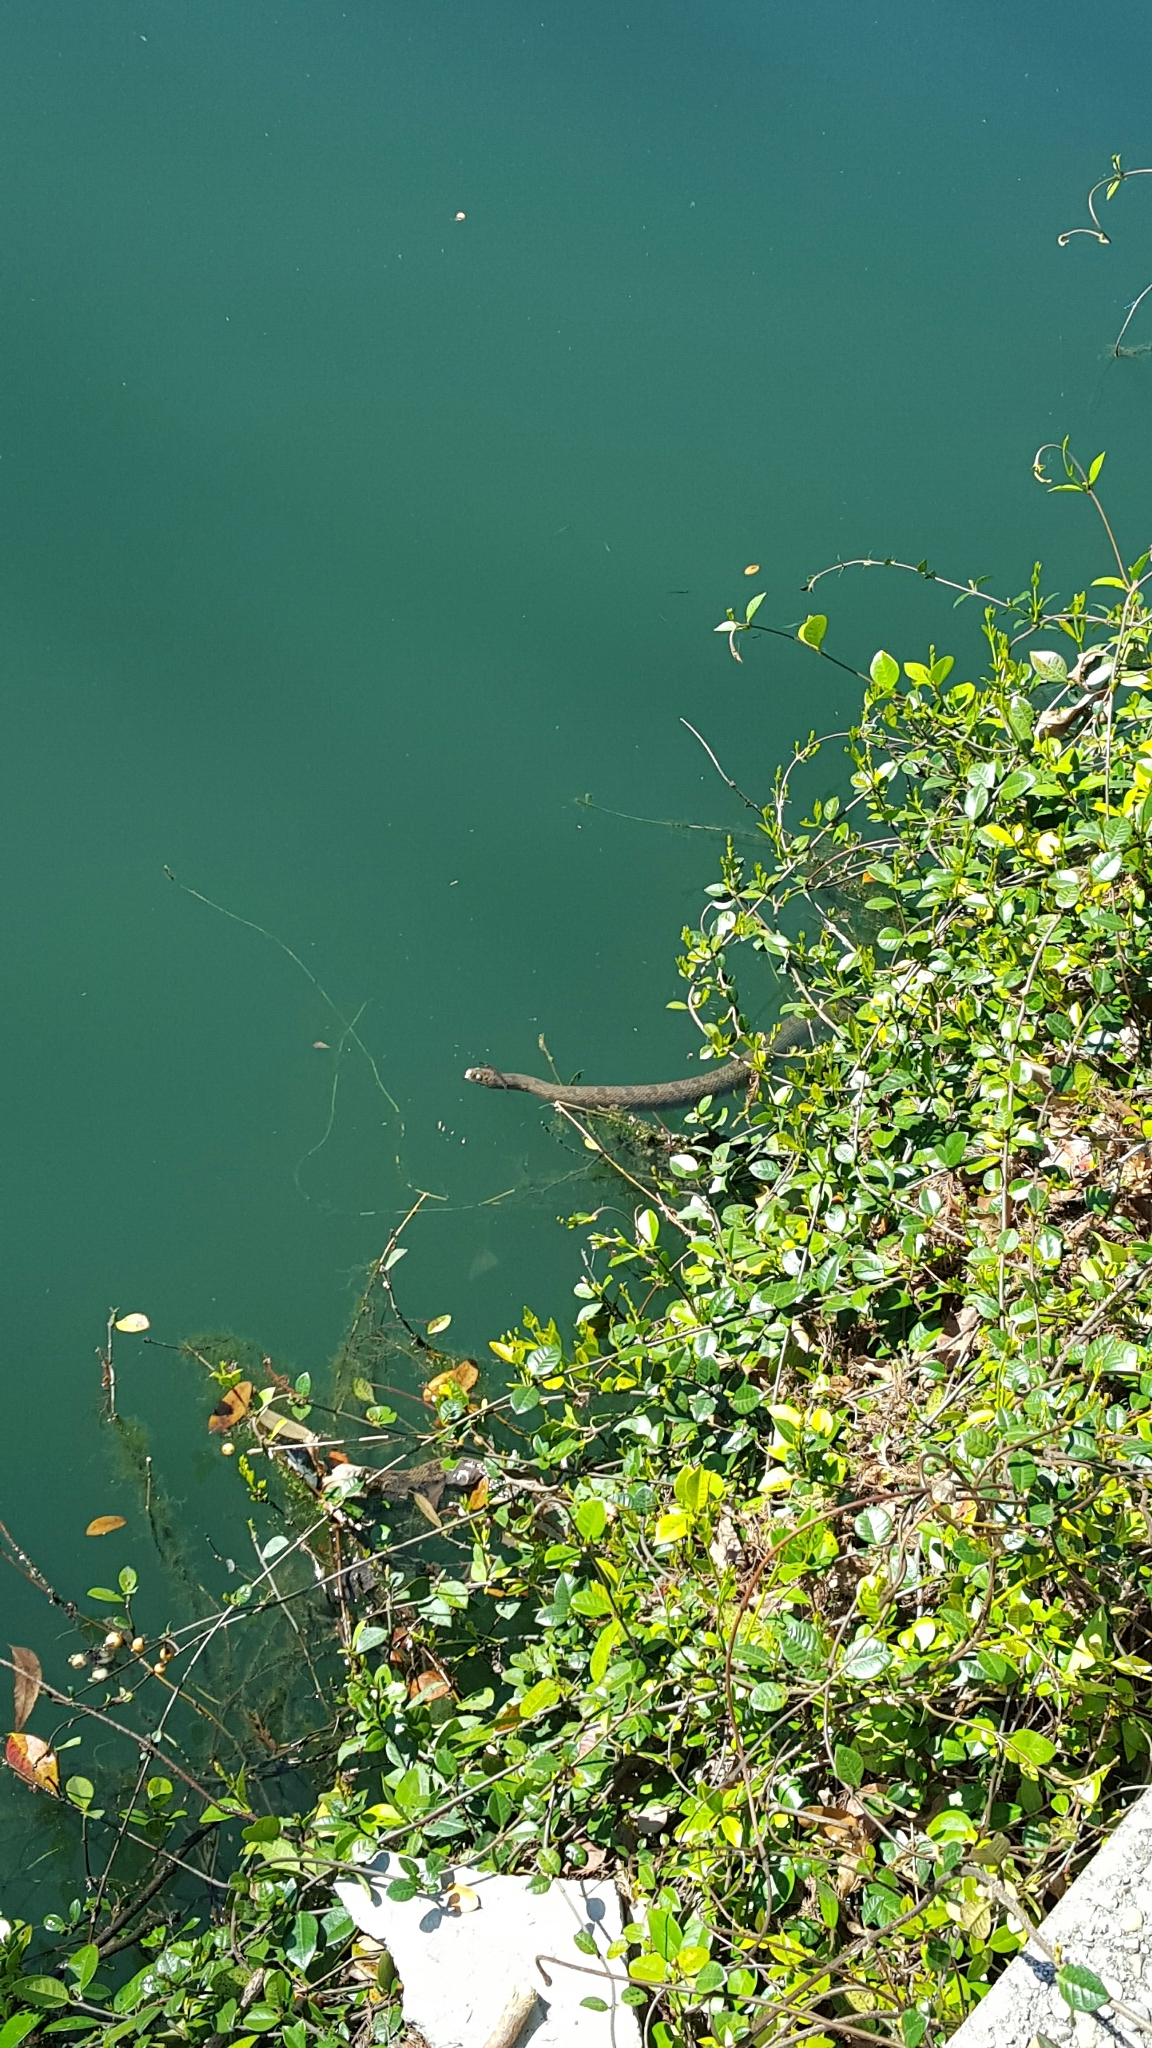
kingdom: Animalia
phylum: Chordata
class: Squamata
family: Colubridae
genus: Nerodia
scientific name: Nerodia rhombifer
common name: Diamondback water snake
